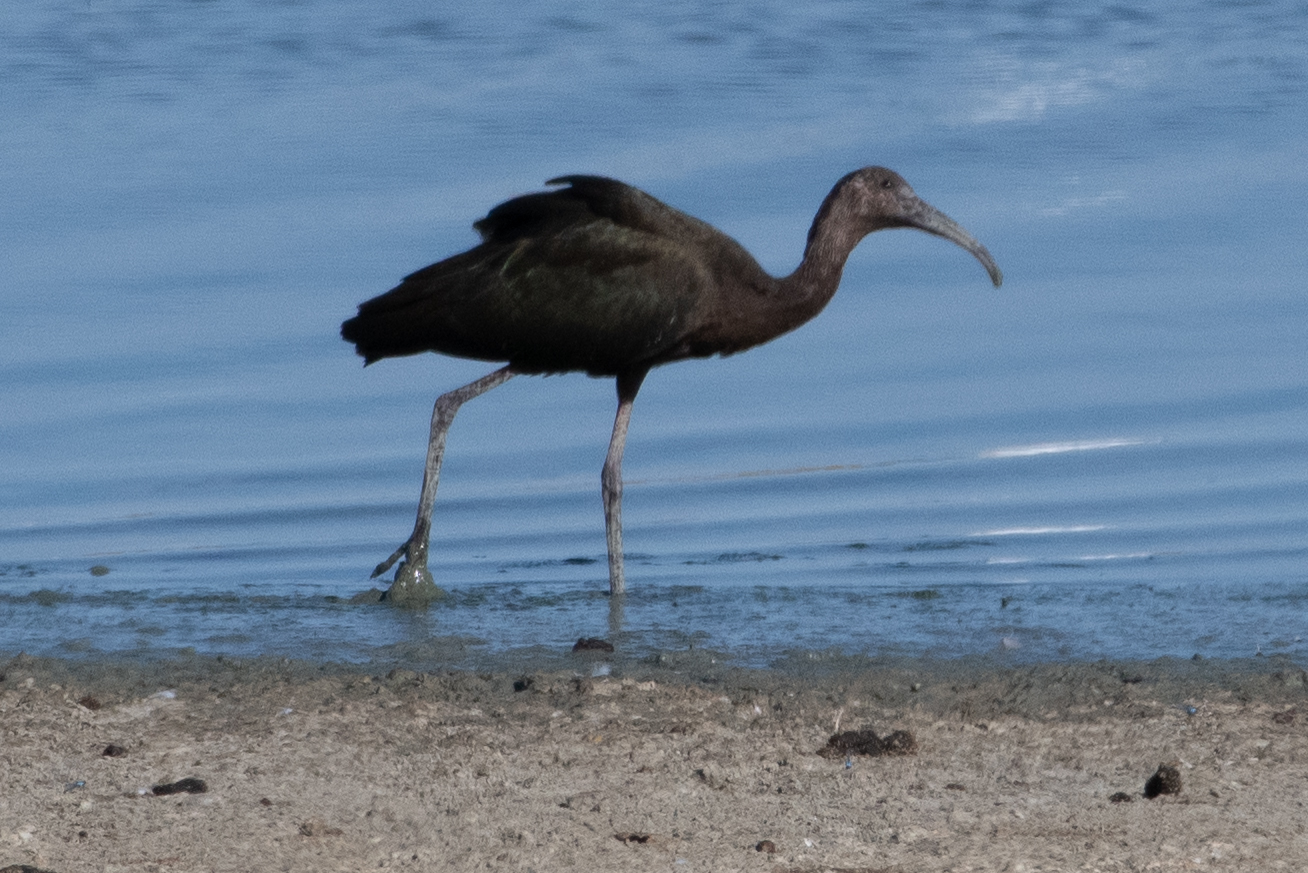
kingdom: Animalia
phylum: Chordata
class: Aves
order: Pelecaniformes
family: Threskiornithidae
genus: Plegadis
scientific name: Plegadis chihi
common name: White-faced ibis
